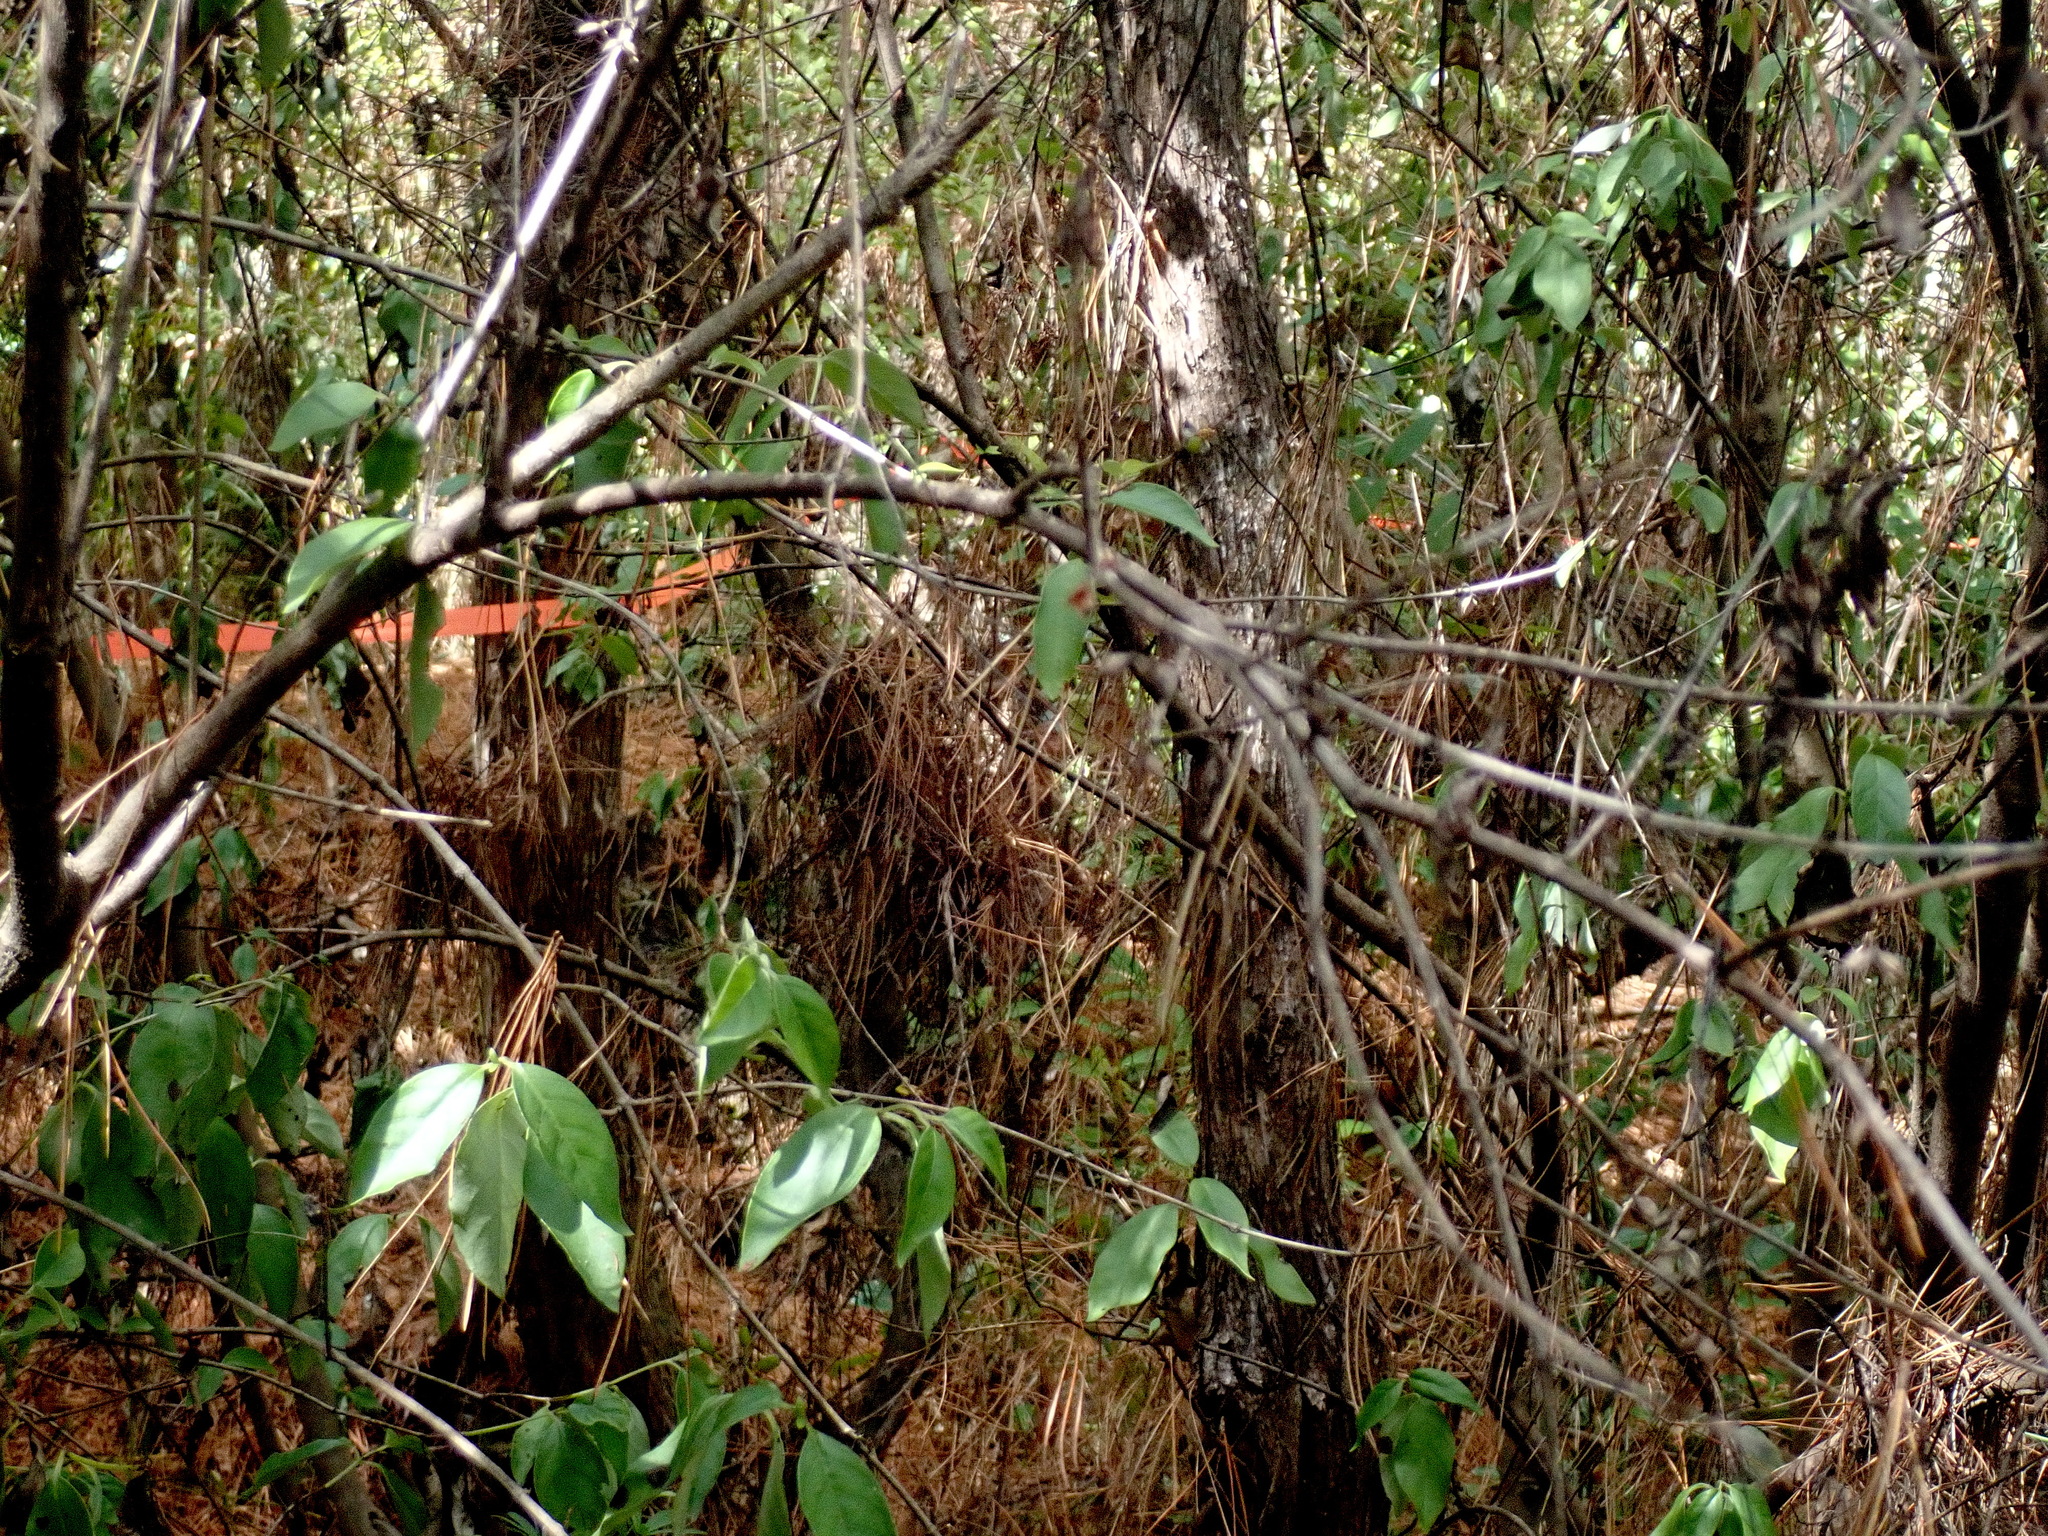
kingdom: Plantae
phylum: Tracheophyta
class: Magnoliopsida
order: Gentianales
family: Loganiaceae
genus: Geniostoma
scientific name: Geniostoma ligustrifolium
